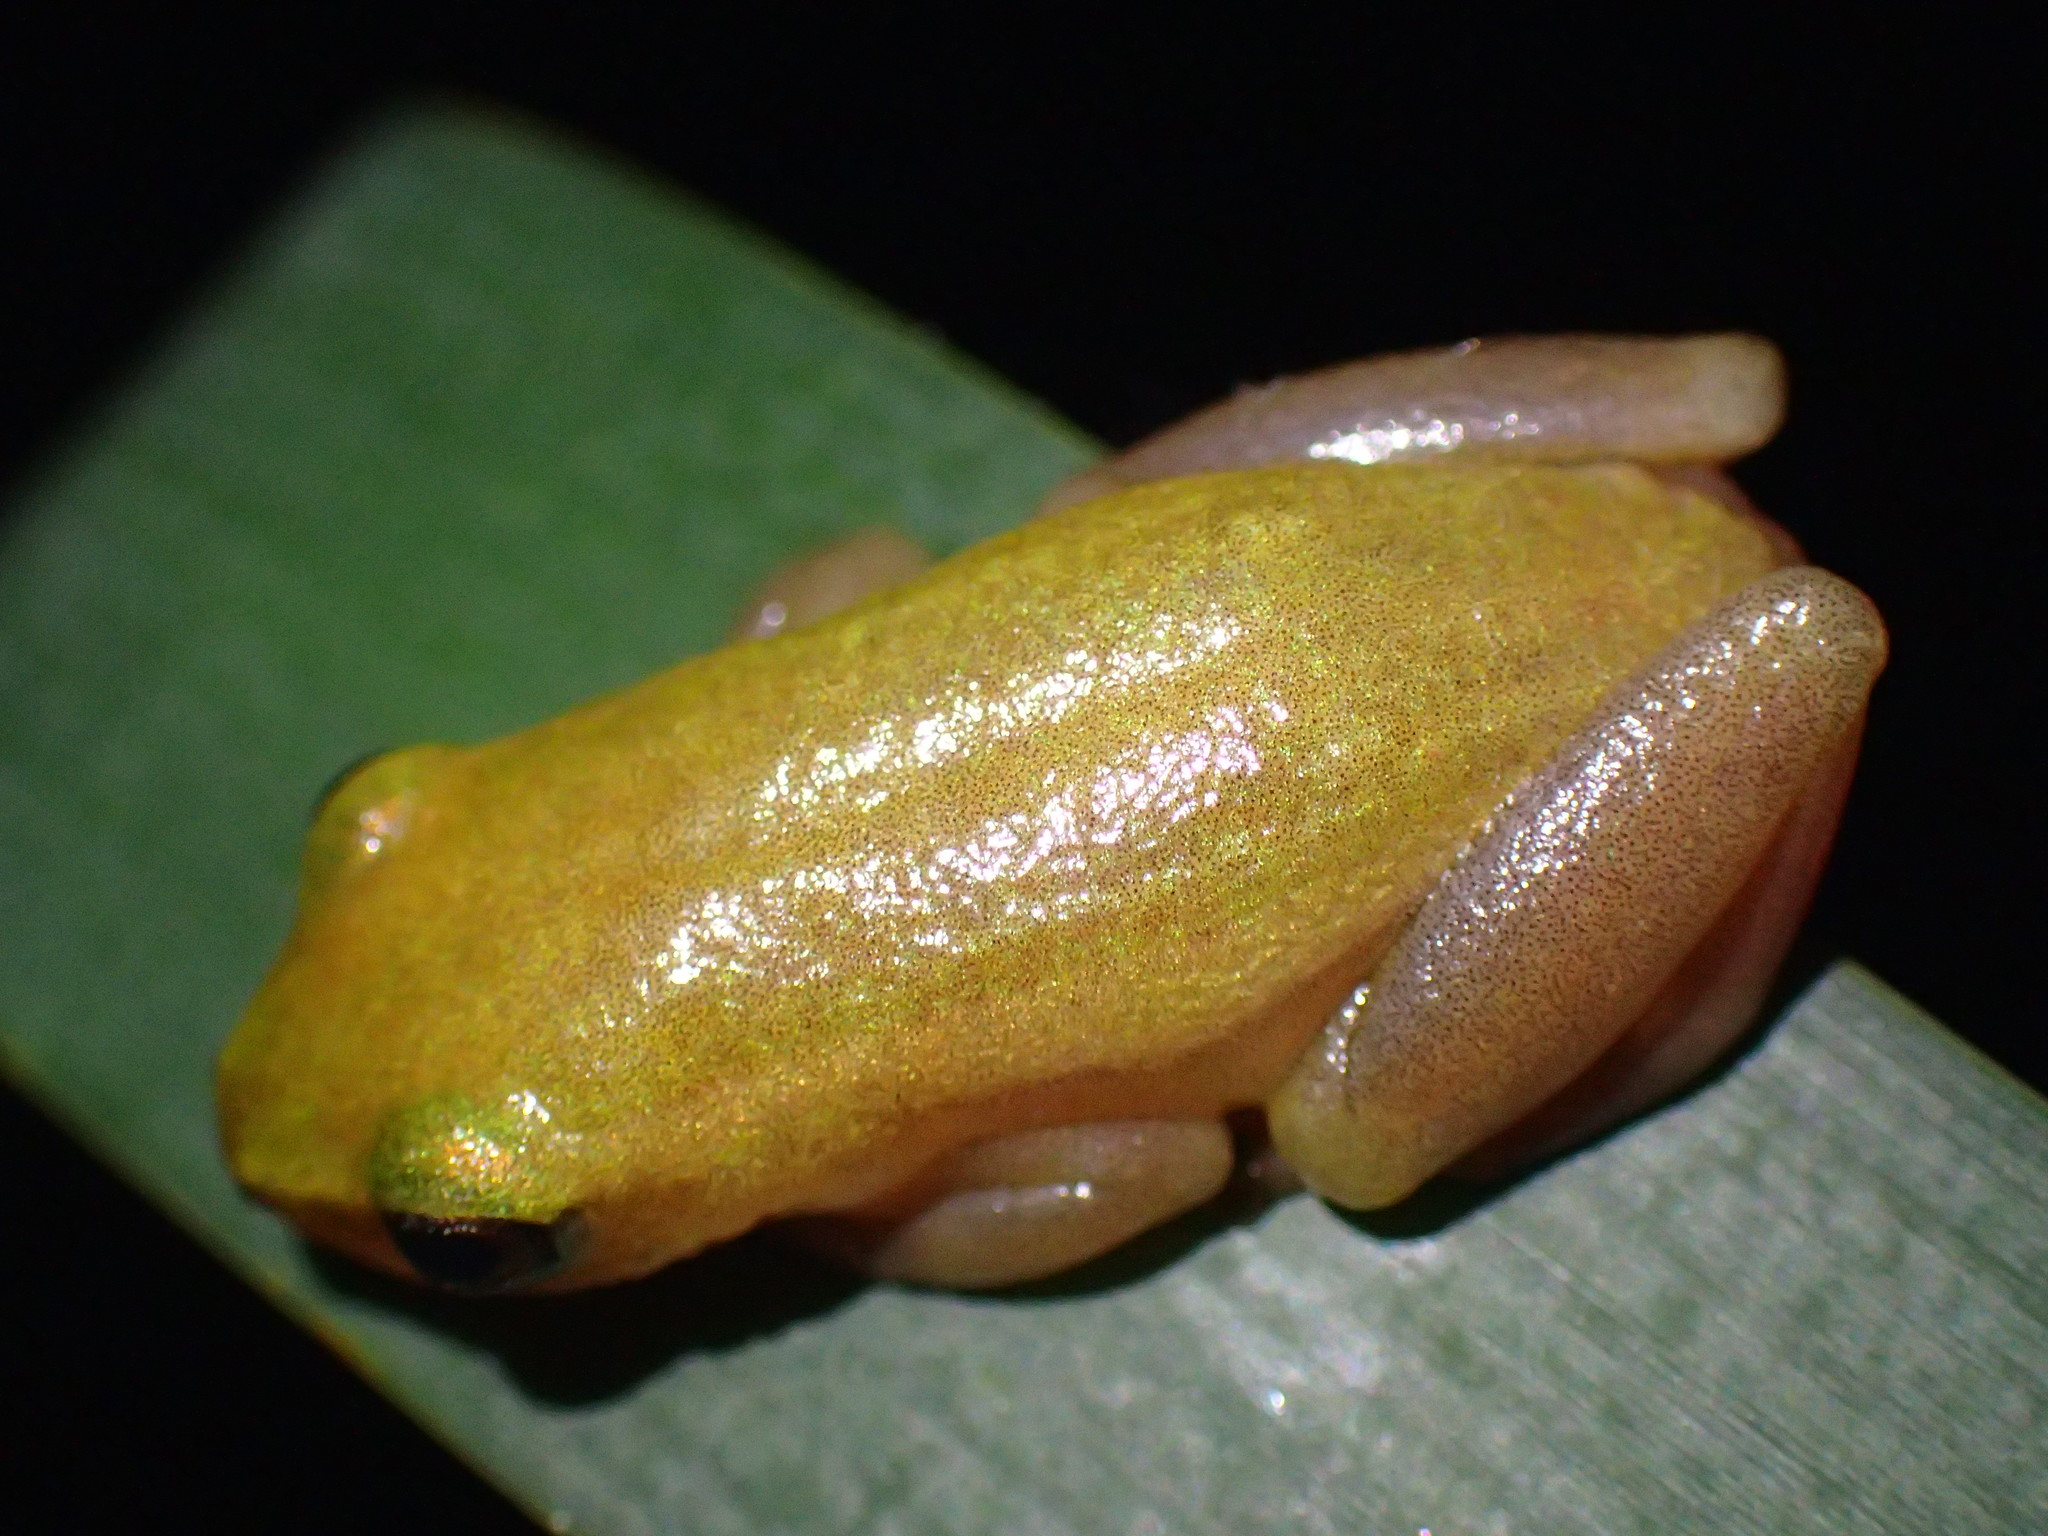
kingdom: Animalia
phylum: Chordata
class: Amphibia
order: Anura
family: Hyperoliidae
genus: Hyperolius
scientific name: Hyperolius pickersgilli
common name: Pickersgill's reed frog
